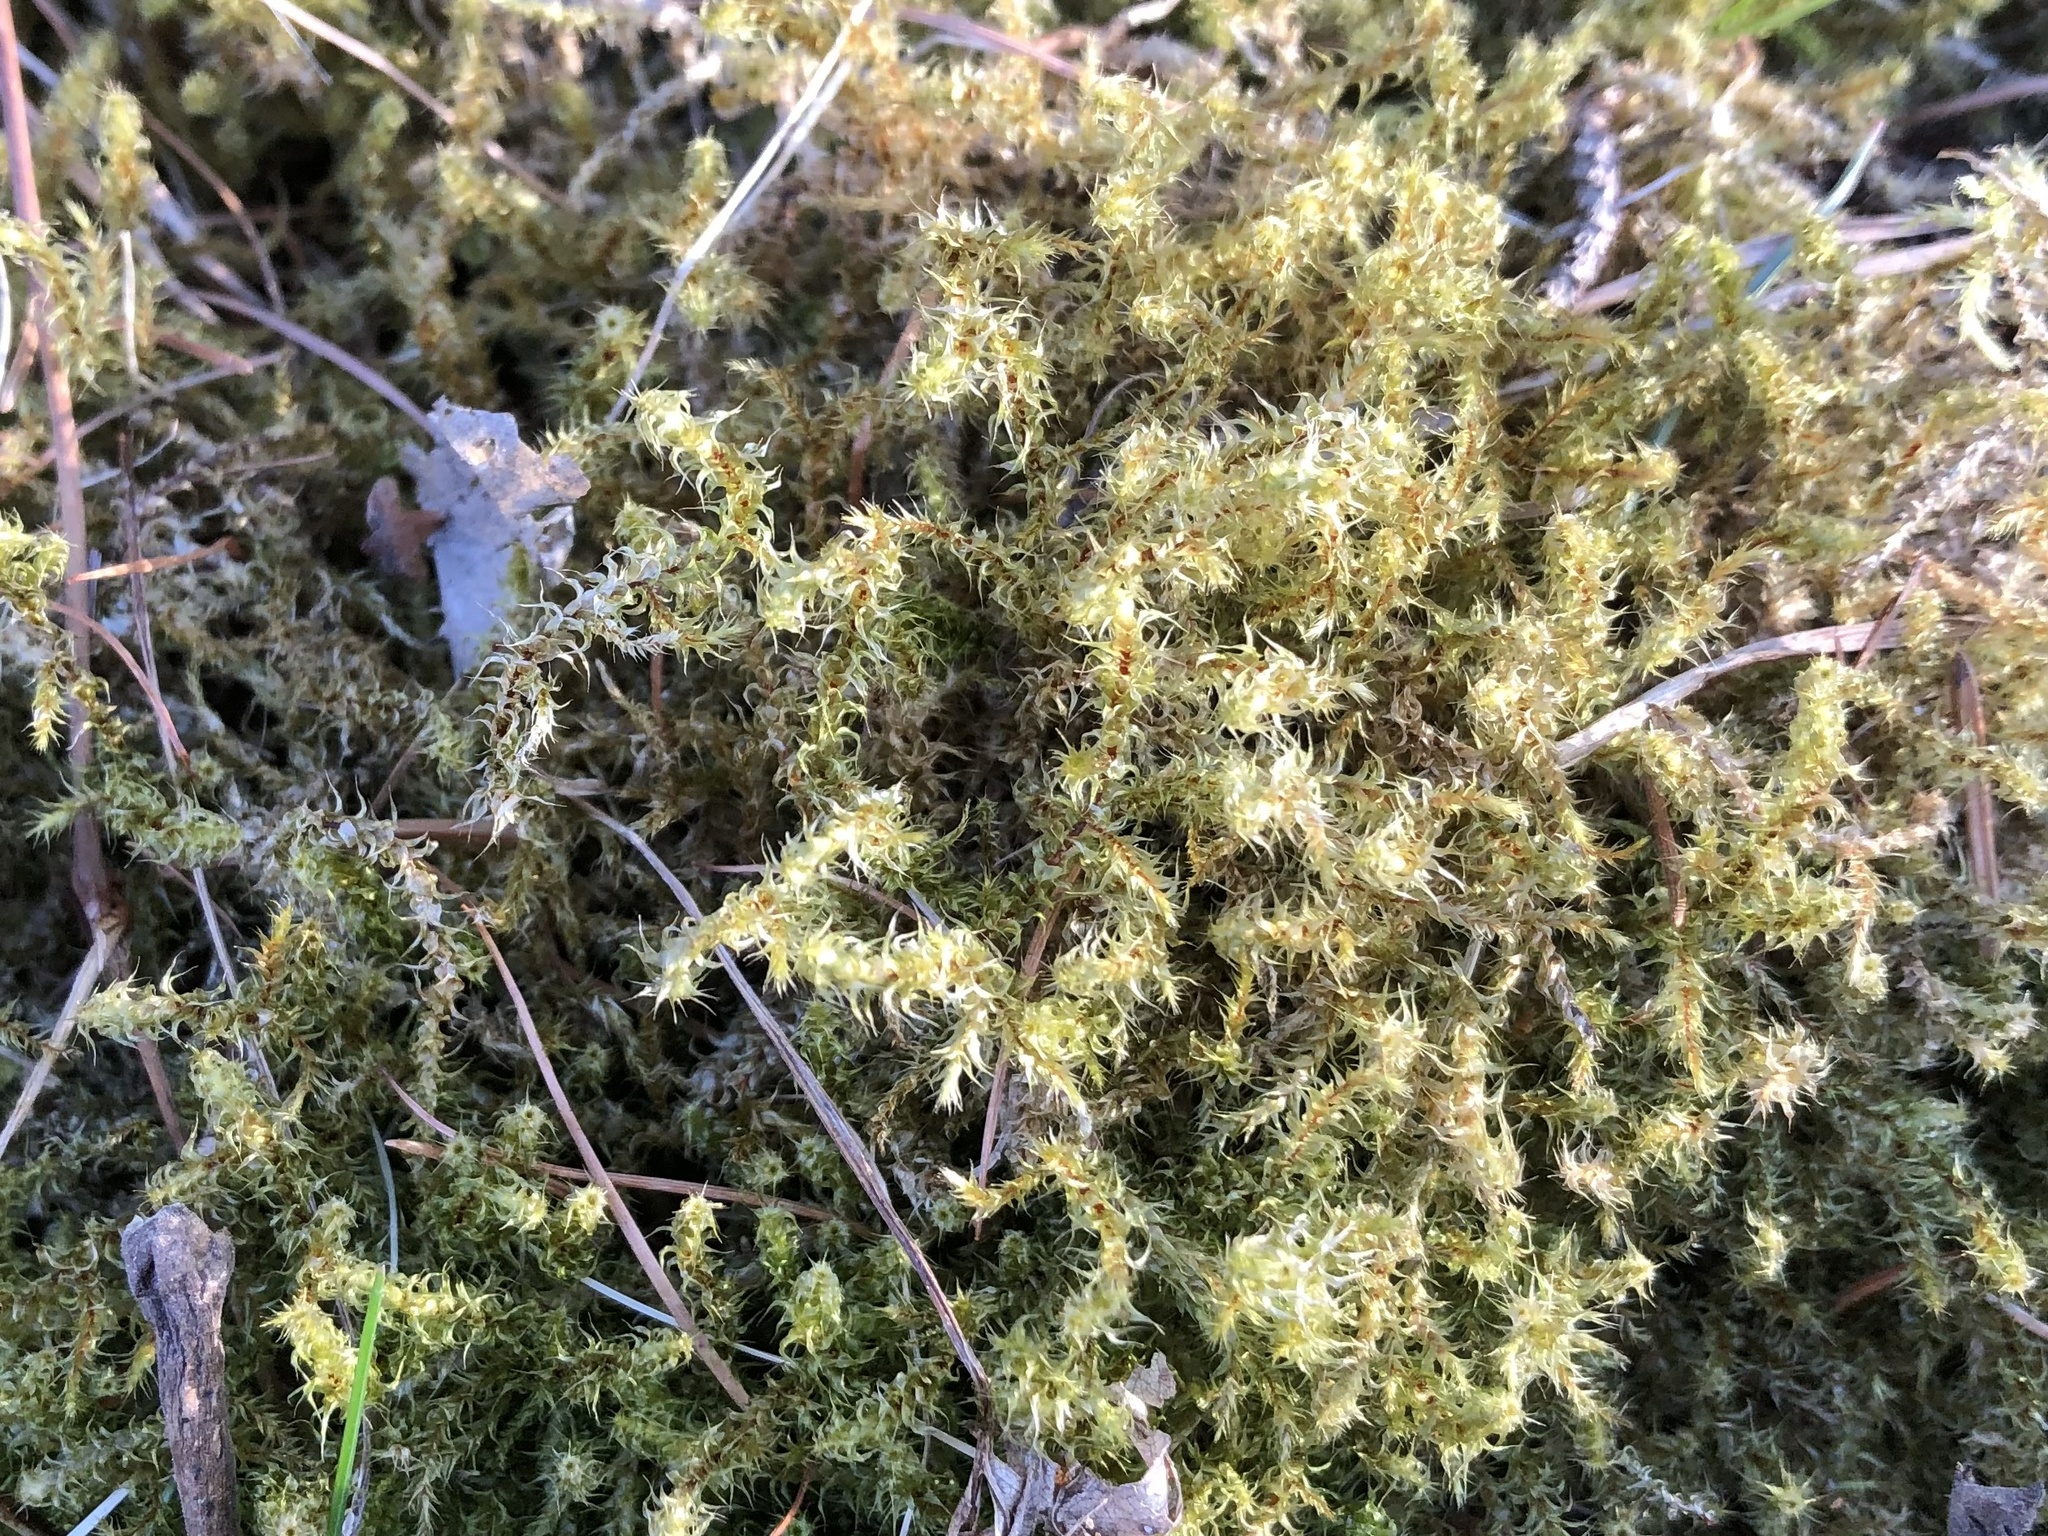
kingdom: Plantae
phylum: Bryophyta
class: Bryopsida
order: Hypnales
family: Hylocomiaceae
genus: Rhytidiadelphus
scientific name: Rhytidiadelphus squarrosus
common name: Springy turf-moss
